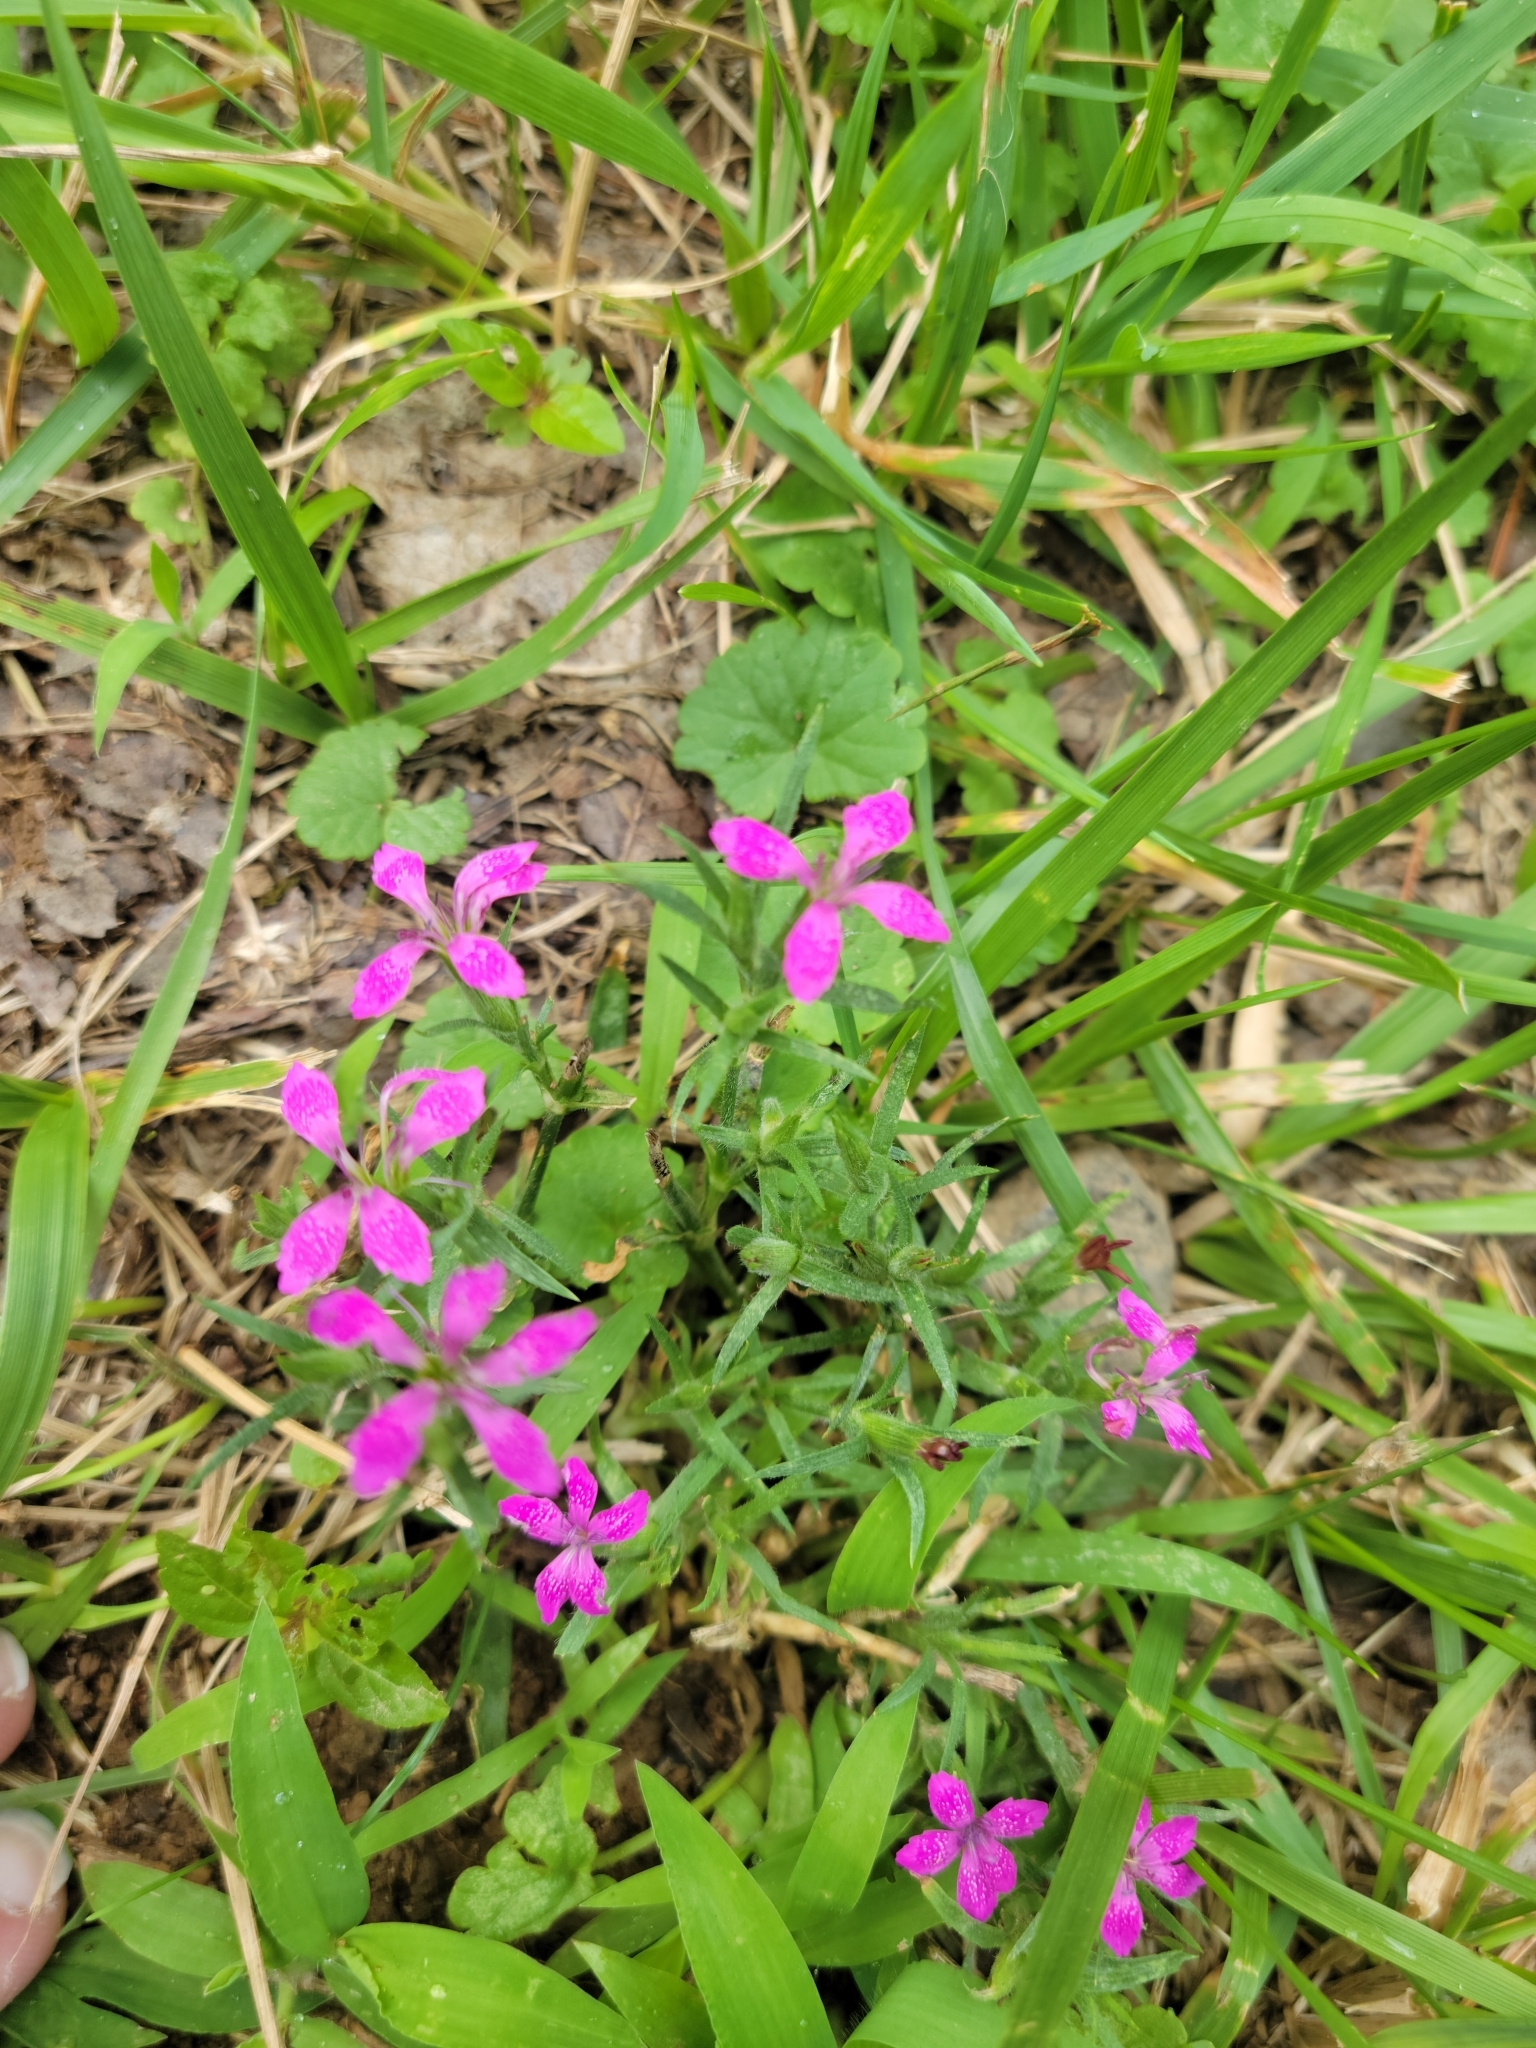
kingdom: Plantae
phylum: Tracheophyta
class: Magnoliopsida
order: Caryophyllales
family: Caryophyllaceae
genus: Dianthus
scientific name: Dianthus armeria
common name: Deptford pink
